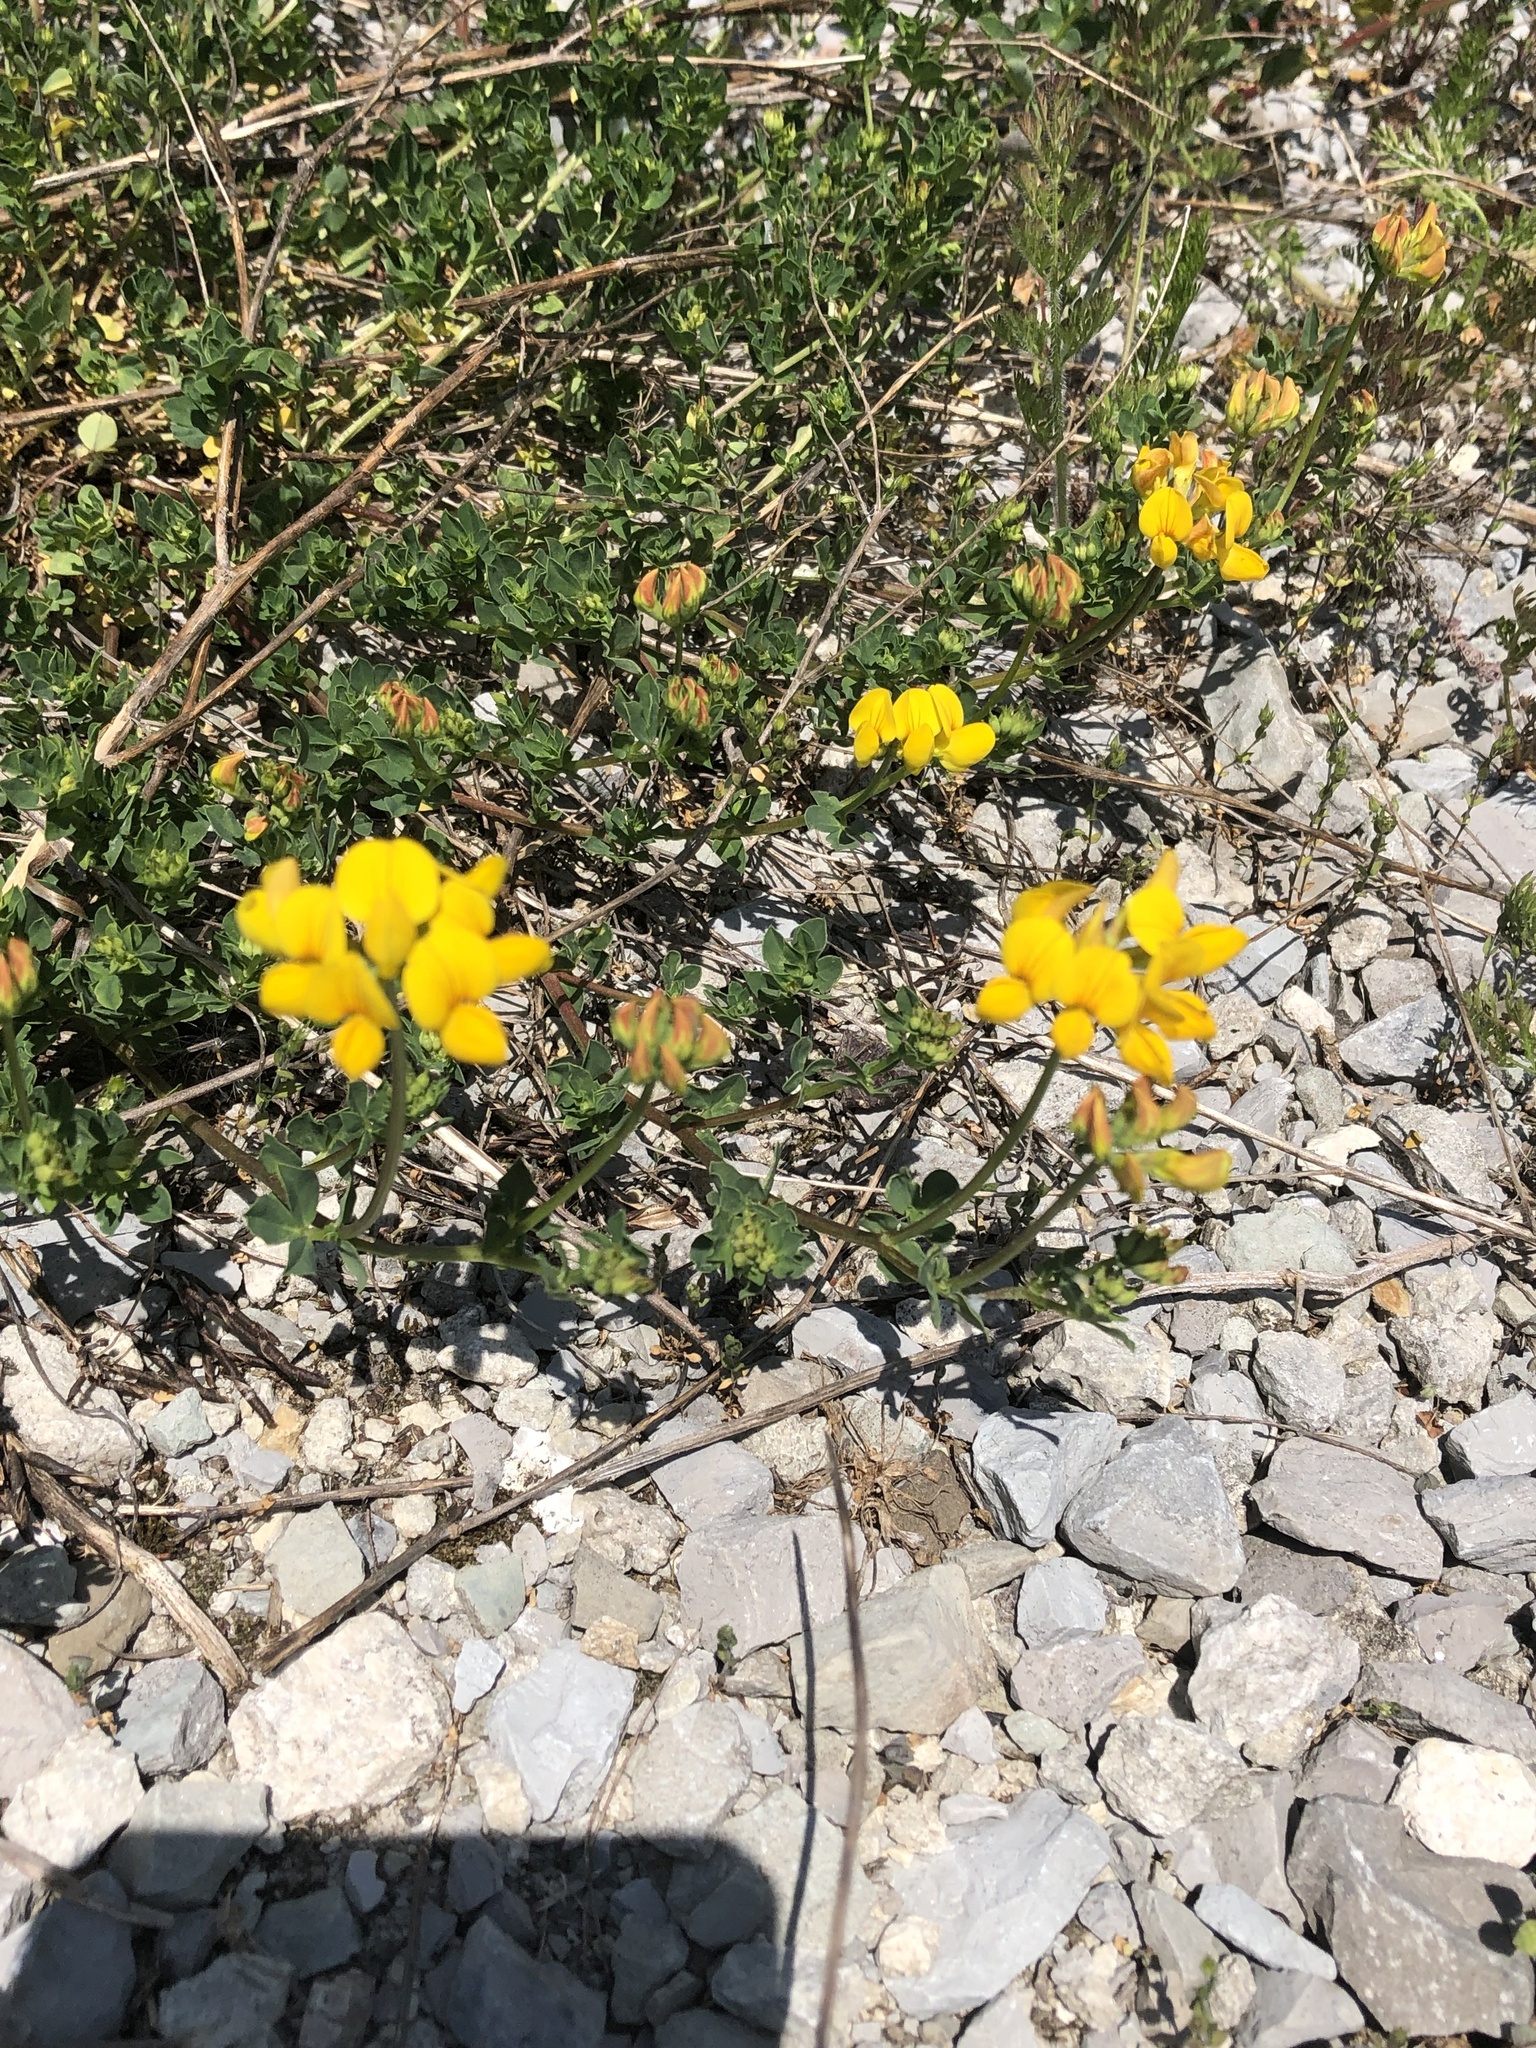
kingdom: Plantae
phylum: Tracheophyta
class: Magnoliopsida
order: Fabales
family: Fabaceae
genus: Lotus
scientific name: Lotus corniculatus
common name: Common bird's-foot-trefoil
